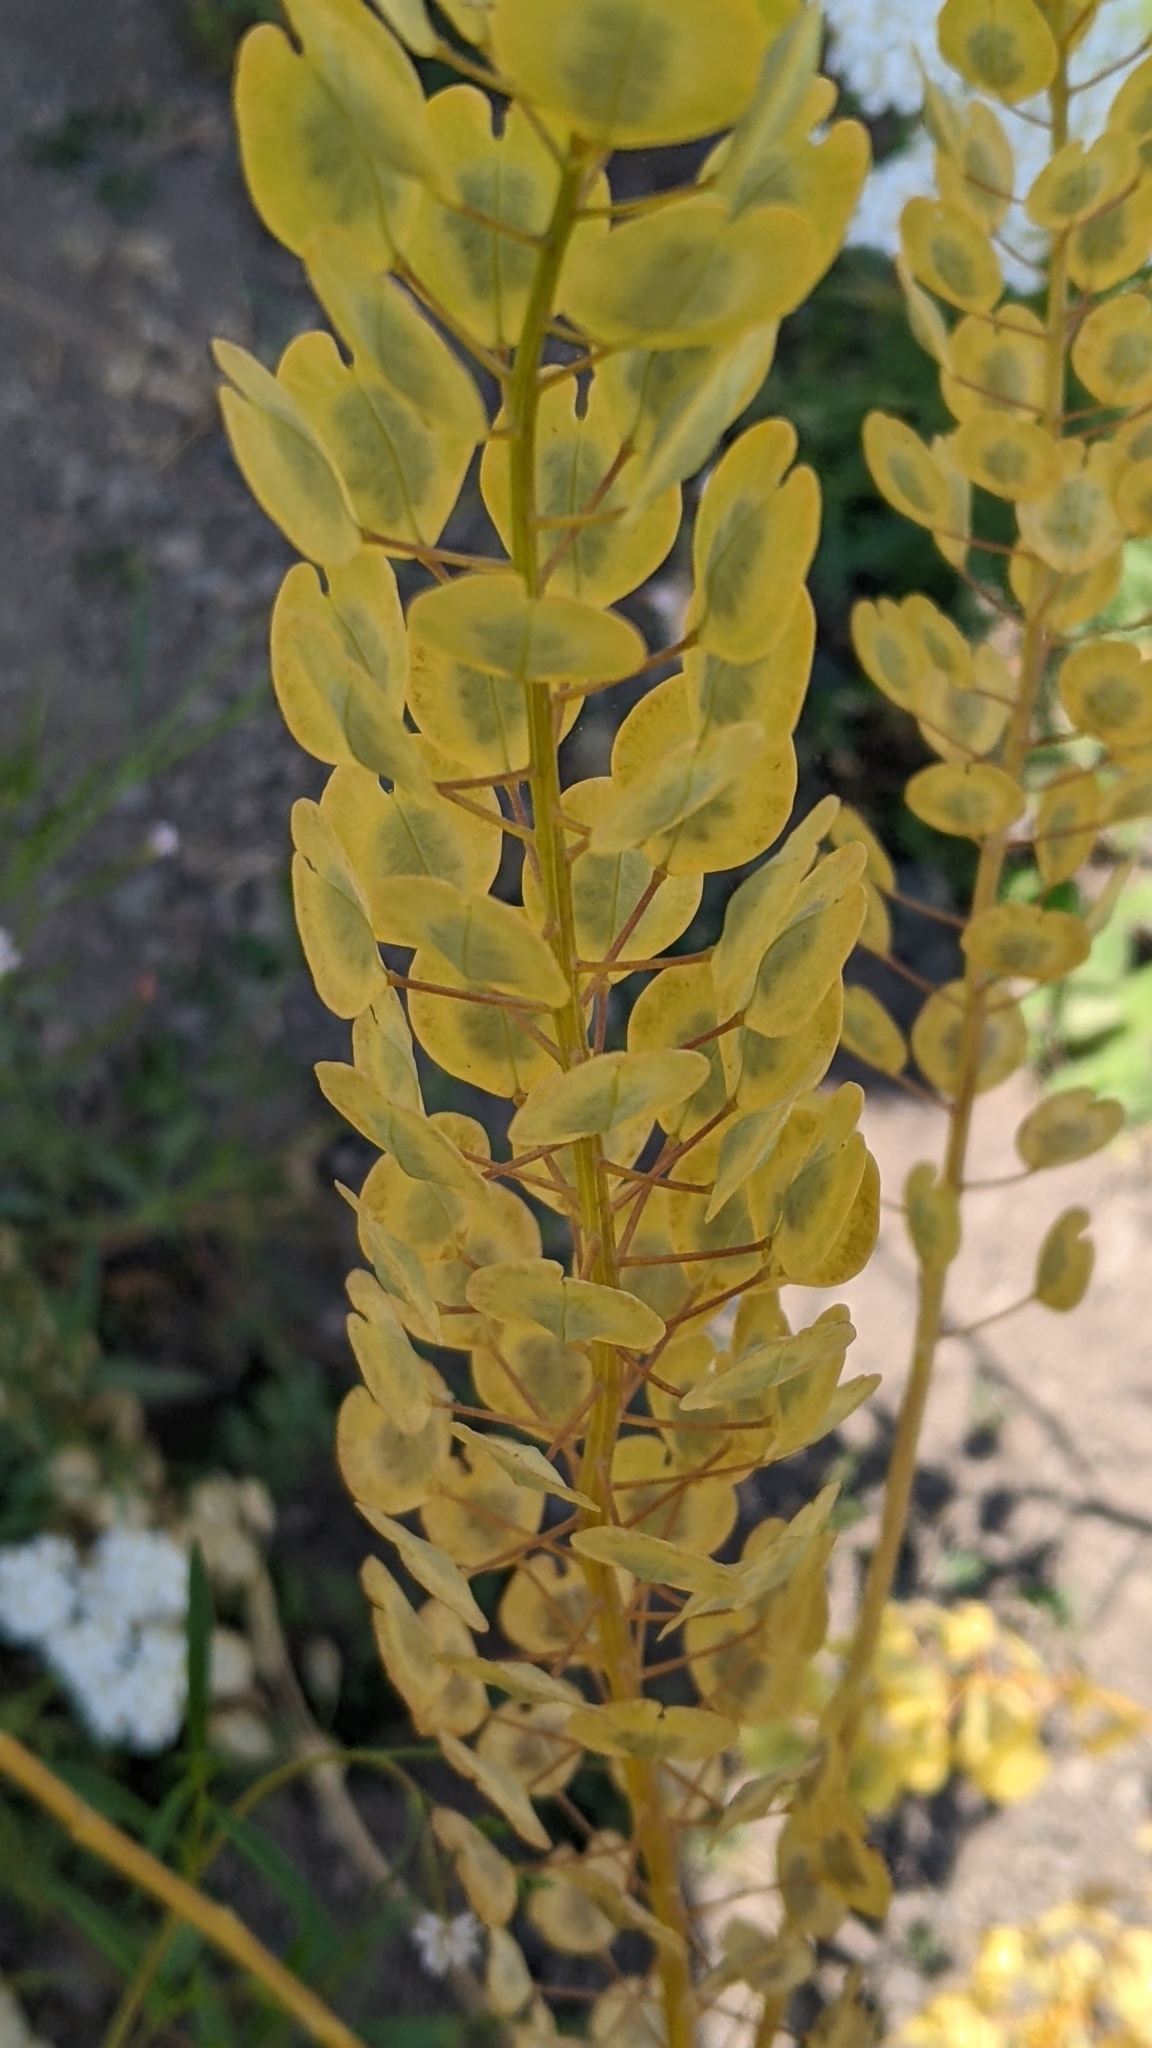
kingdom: Plantae
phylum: Tracheophyta
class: Magnoliopsida
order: Brassicales
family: Brassicaceae
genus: Thlaspi
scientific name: Thlaspi arvense
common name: Field pennycress
